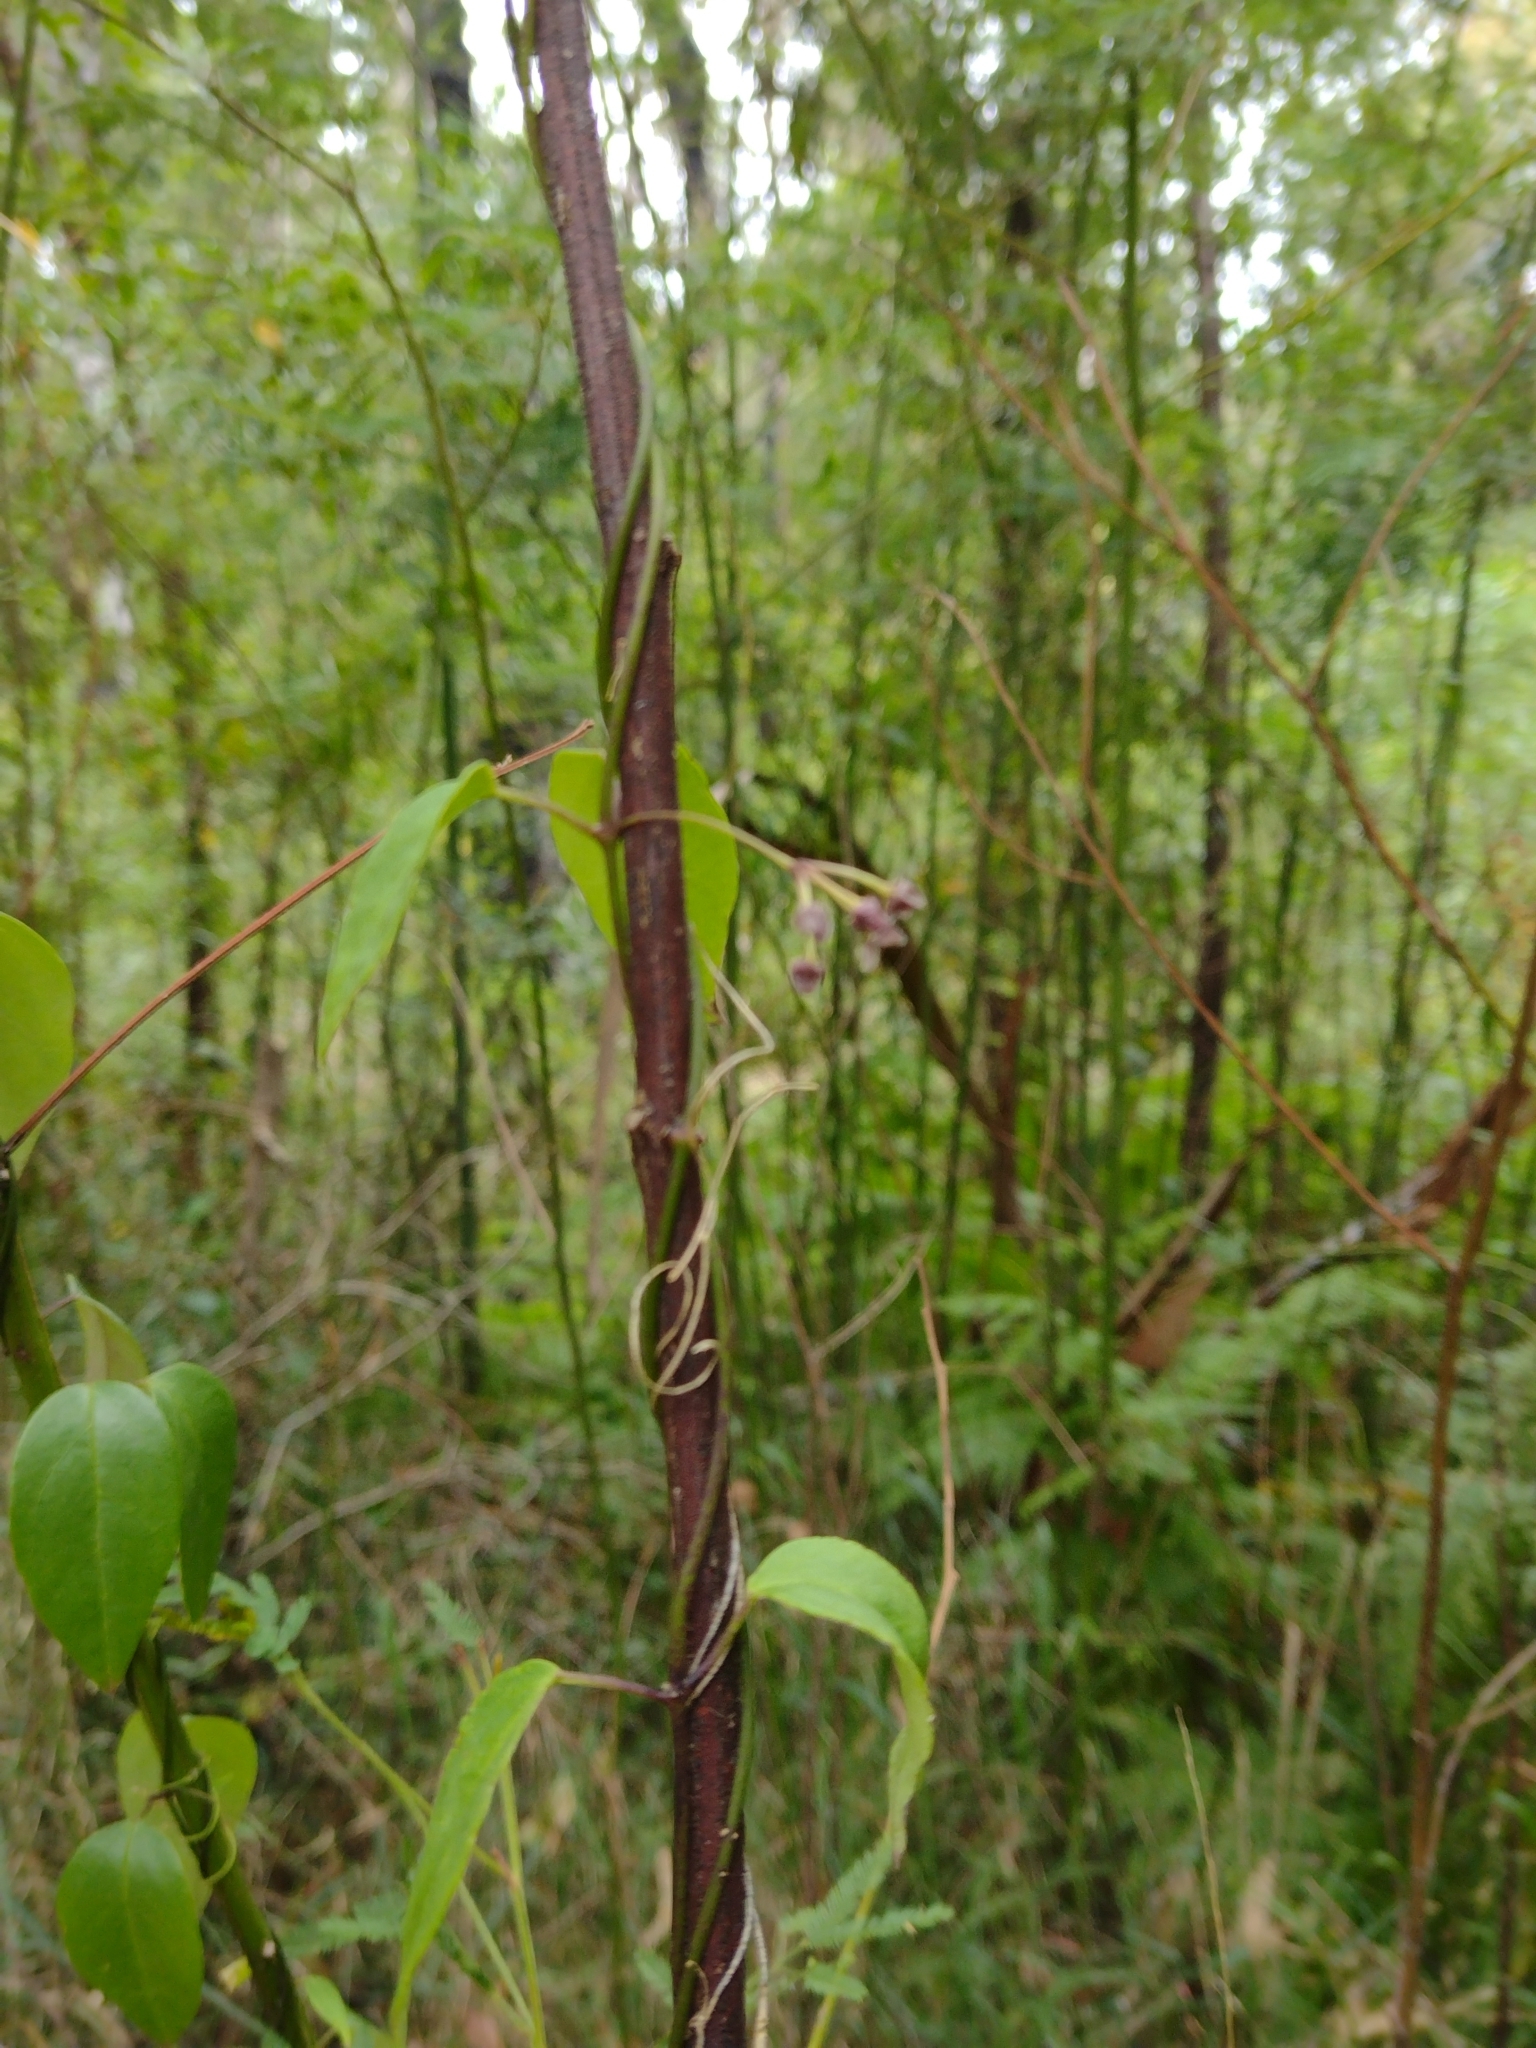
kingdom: Plantae
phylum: Tracheophyta
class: Magnoliopsida
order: Gentianales
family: Apocynaceae
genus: Vincetoxicum
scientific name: Vincetoxicum barbatum
